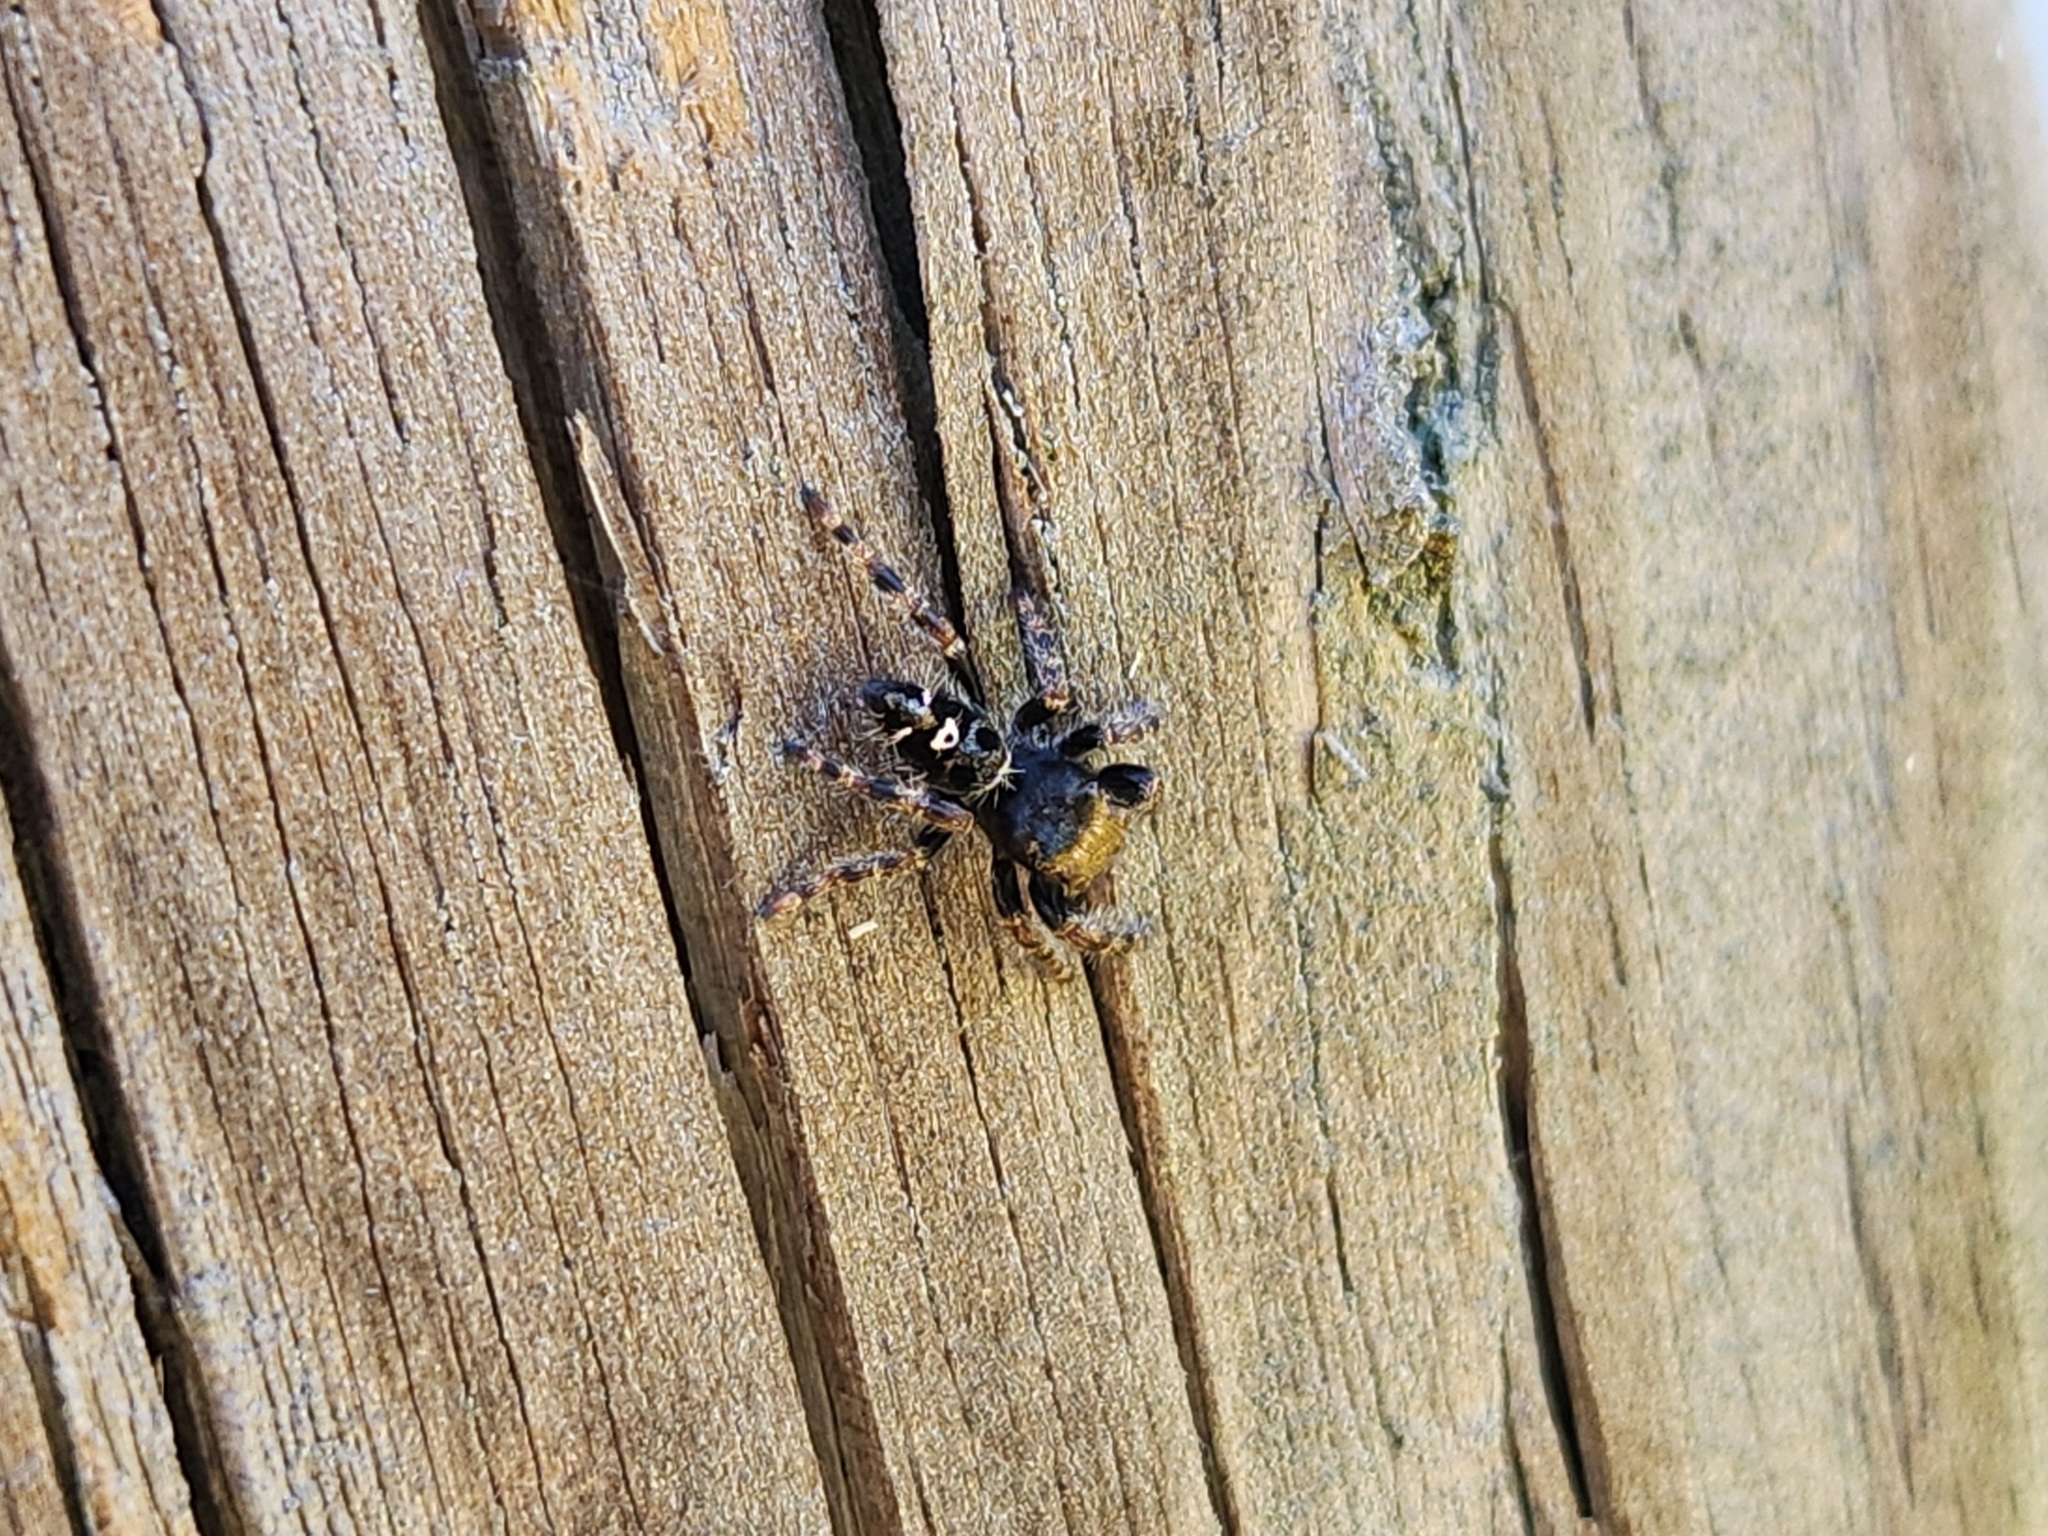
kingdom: Animalia
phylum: Arthropoda
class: Arachnida
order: Araneae
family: Salticidae
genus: Phidippus
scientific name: Phidippus audax
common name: Bold jumper
